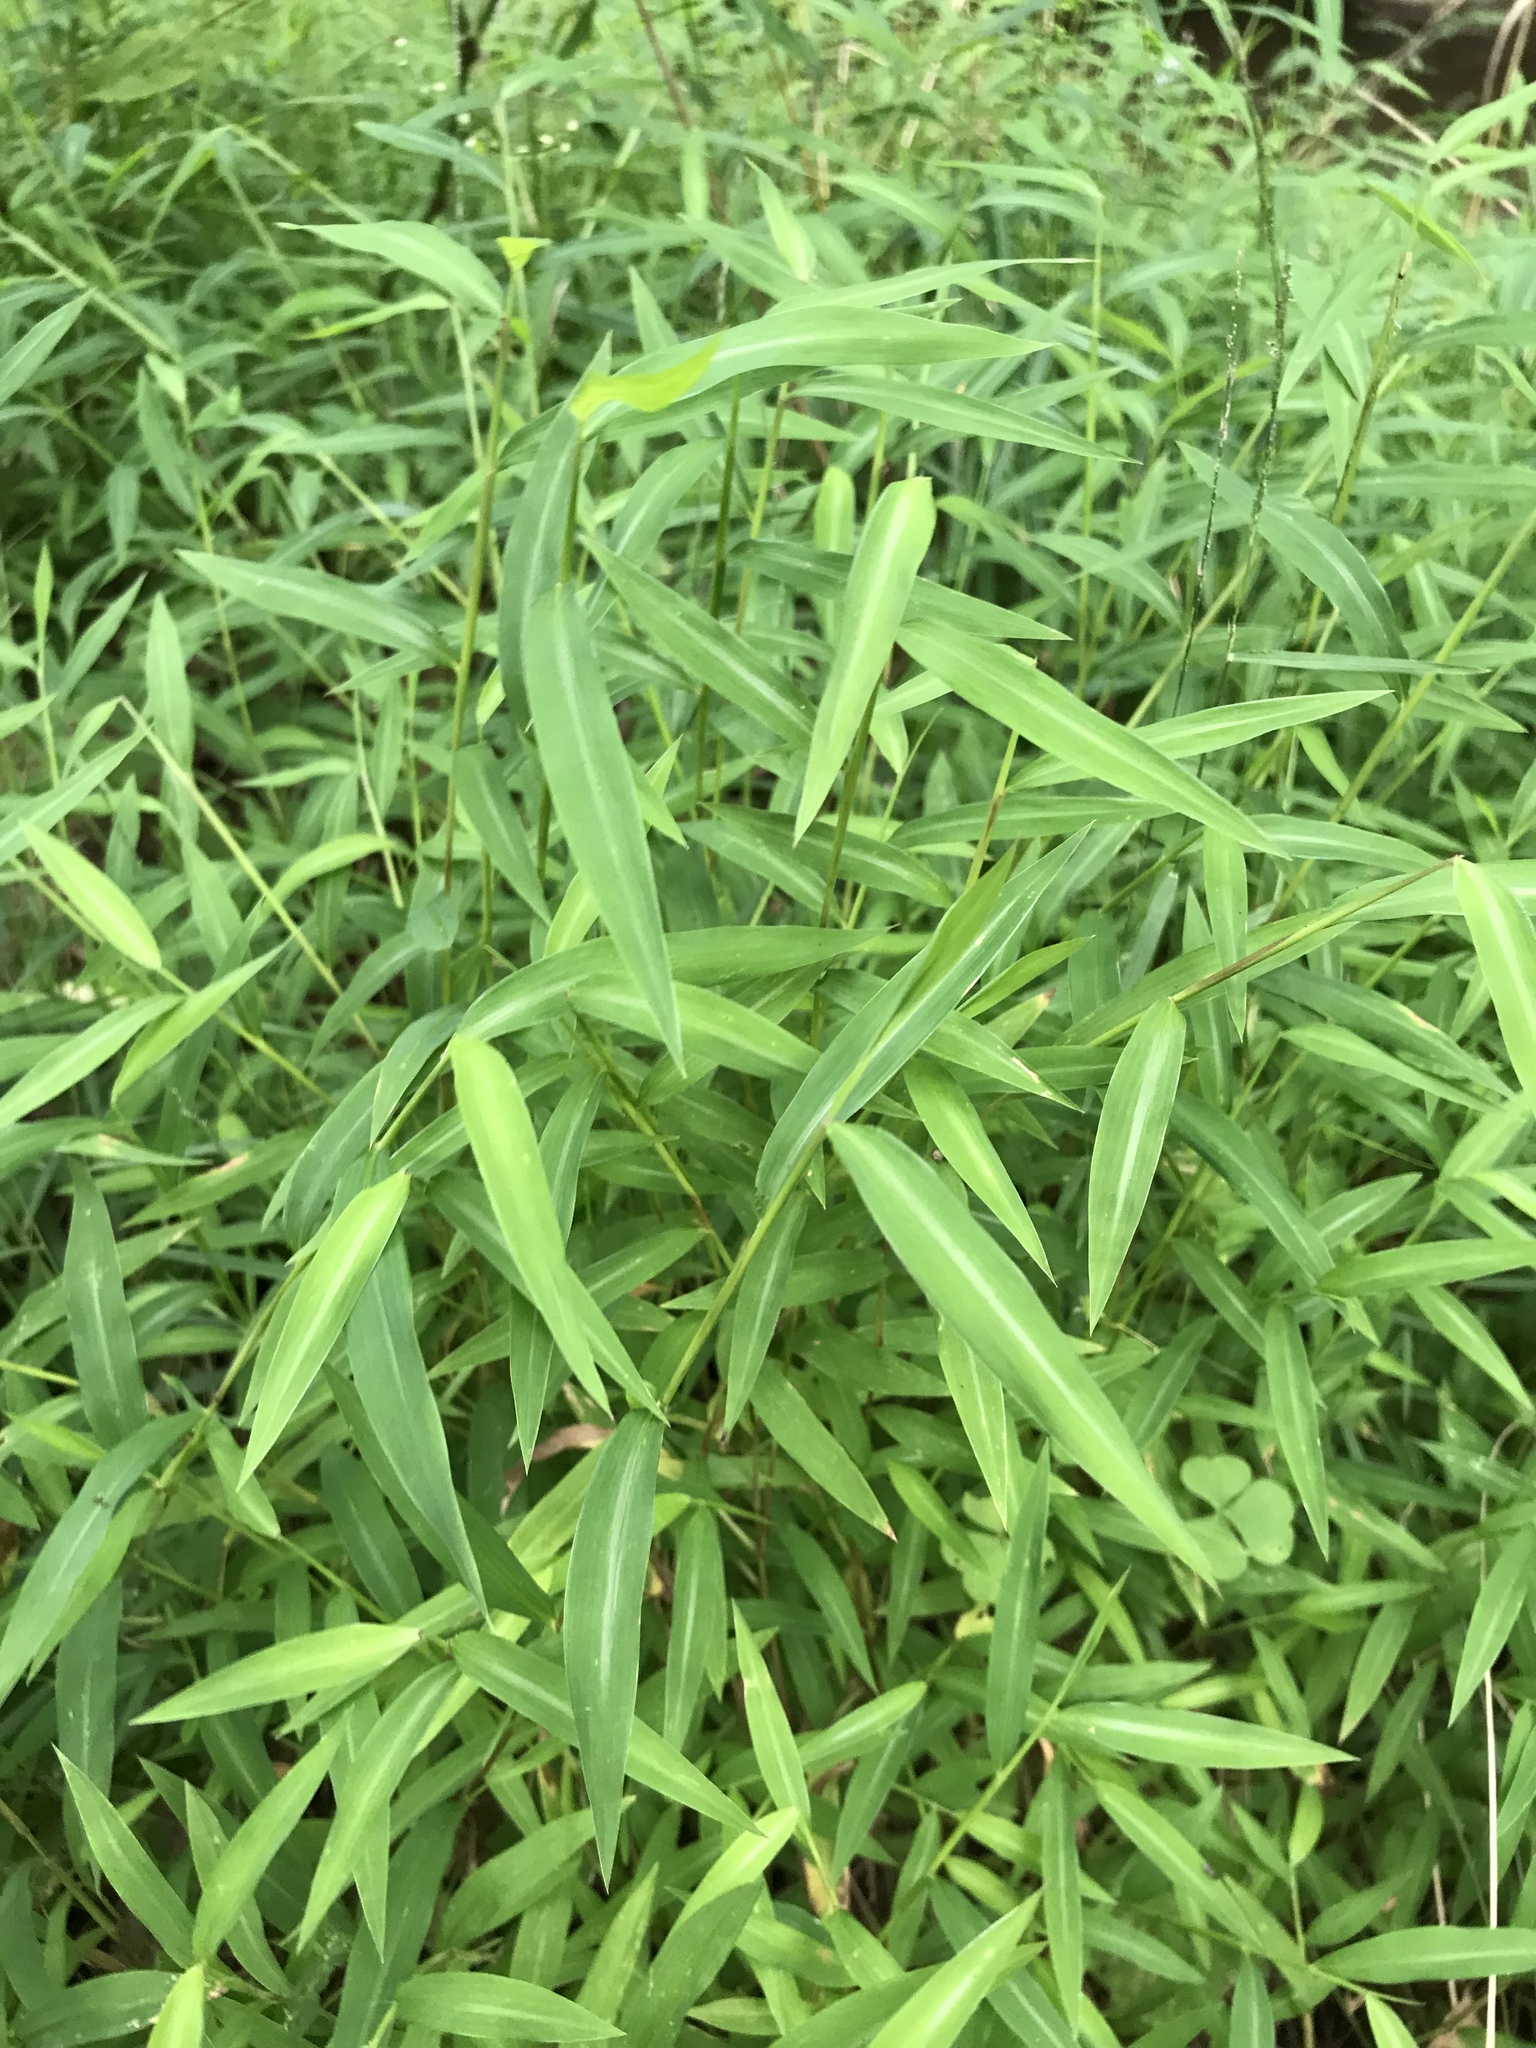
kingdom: Plantae
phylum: Tracheophyta
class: Liliopsida
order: Poales
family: Poaceae
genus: Microstegium
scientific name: Microstegium vimineum
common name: Japanese stiltgrass
